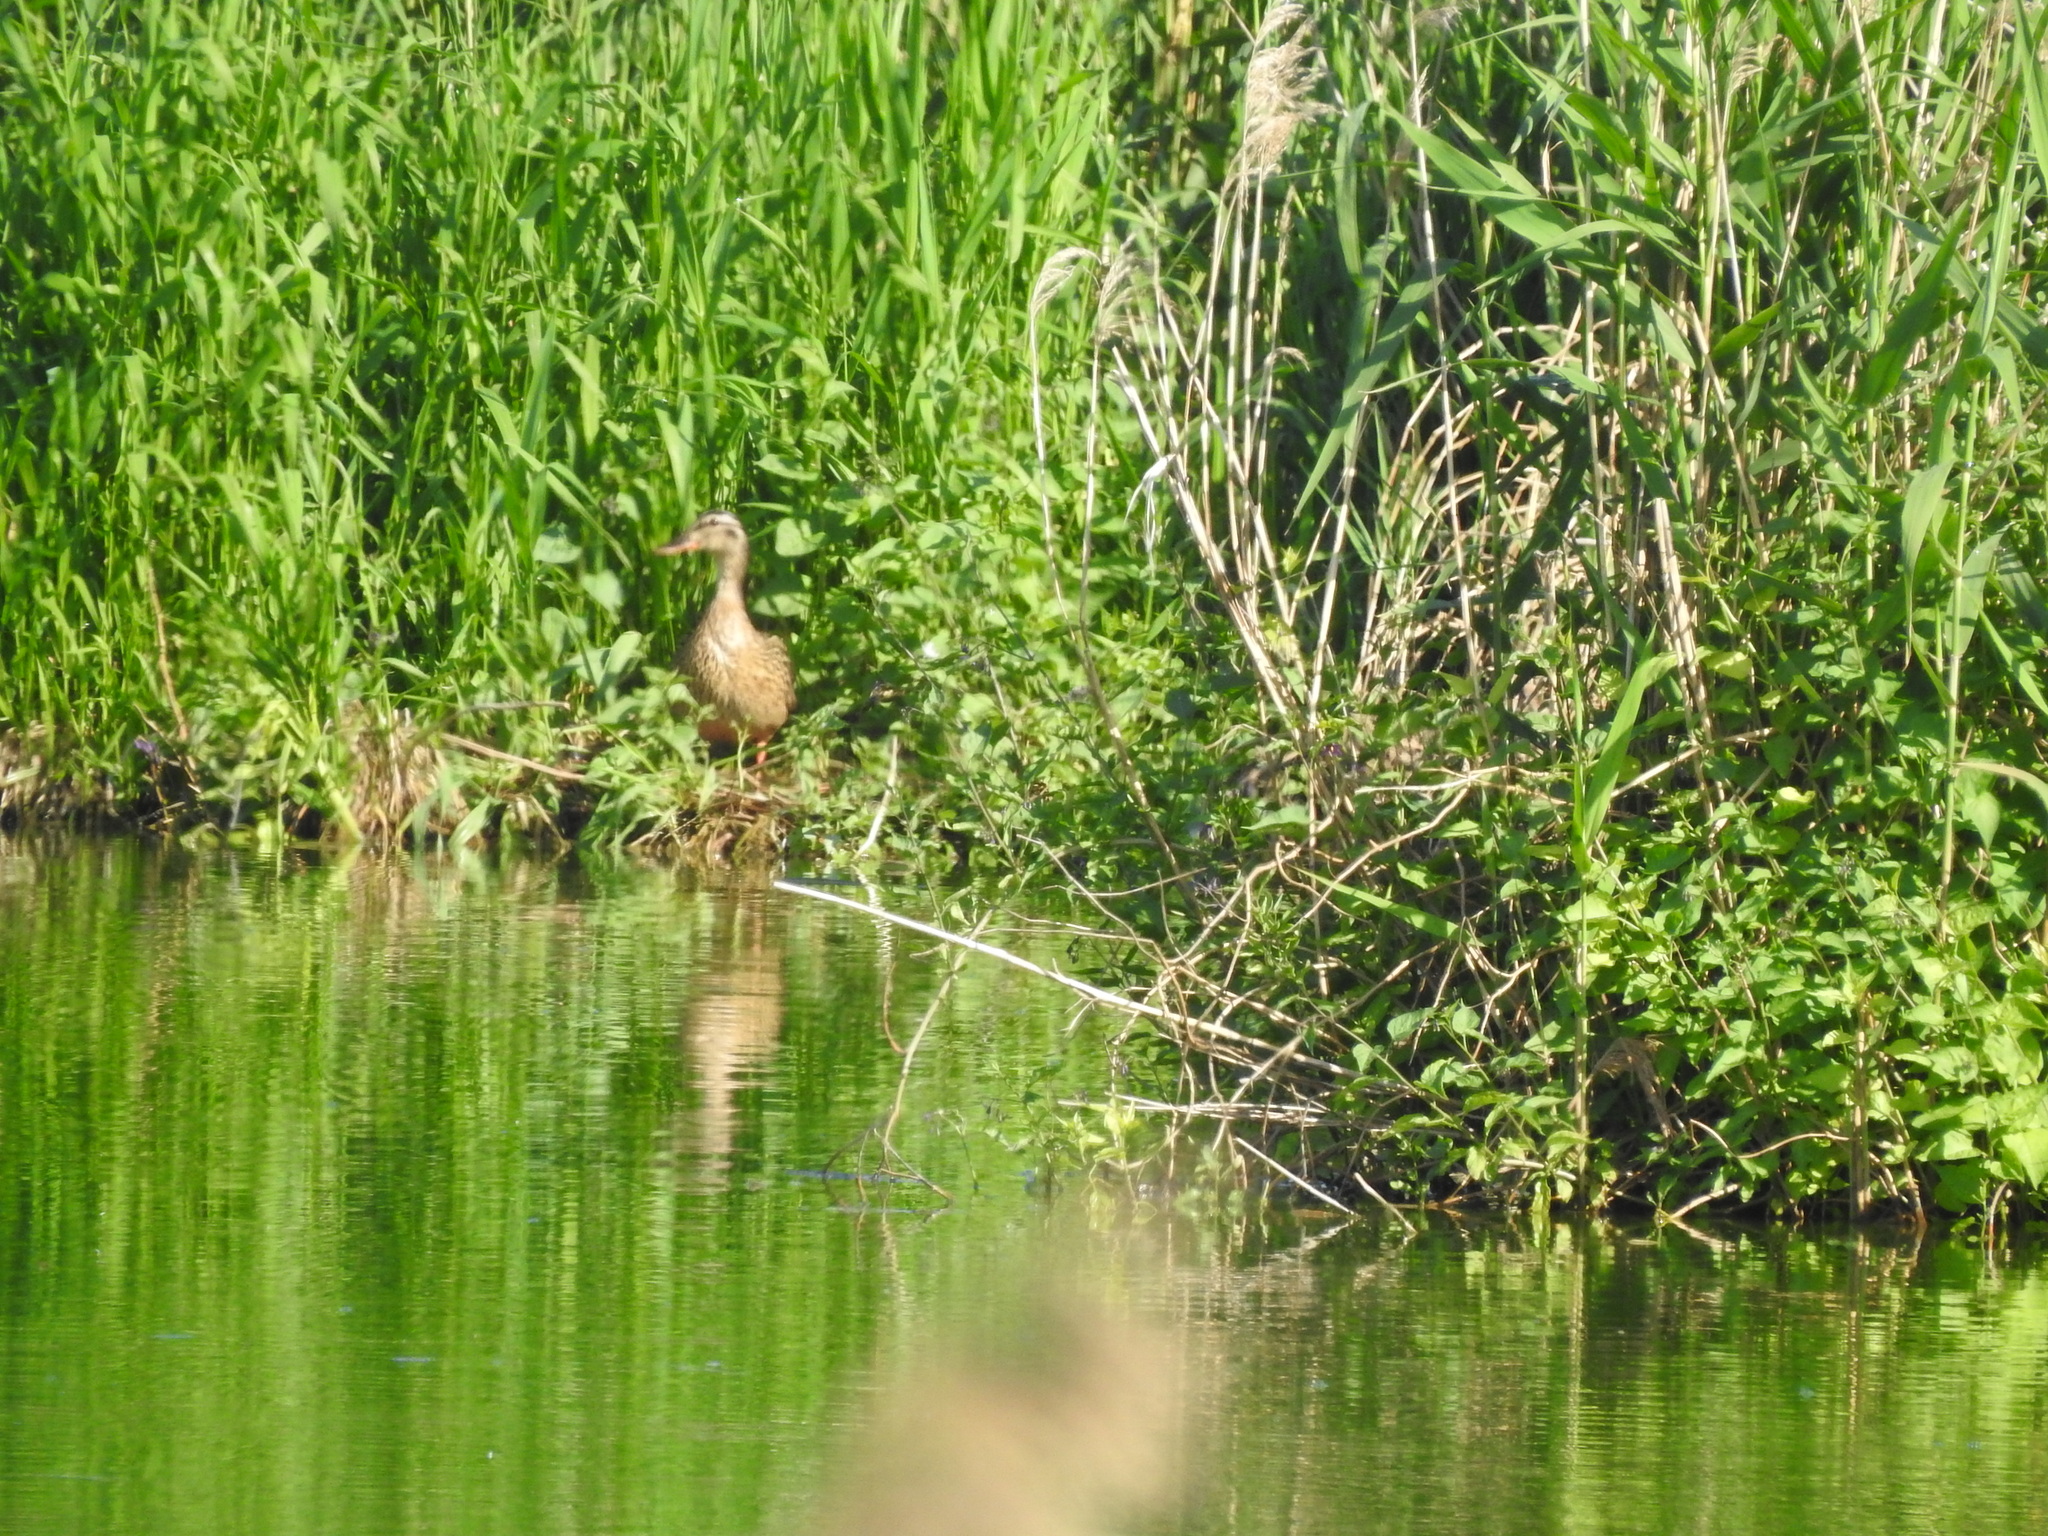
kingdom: Animalia
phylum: Chordata
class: Aves
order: Anseriformes
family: Anatidae
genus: Anas
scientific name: Anas platyrhynchos
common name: Mallard
